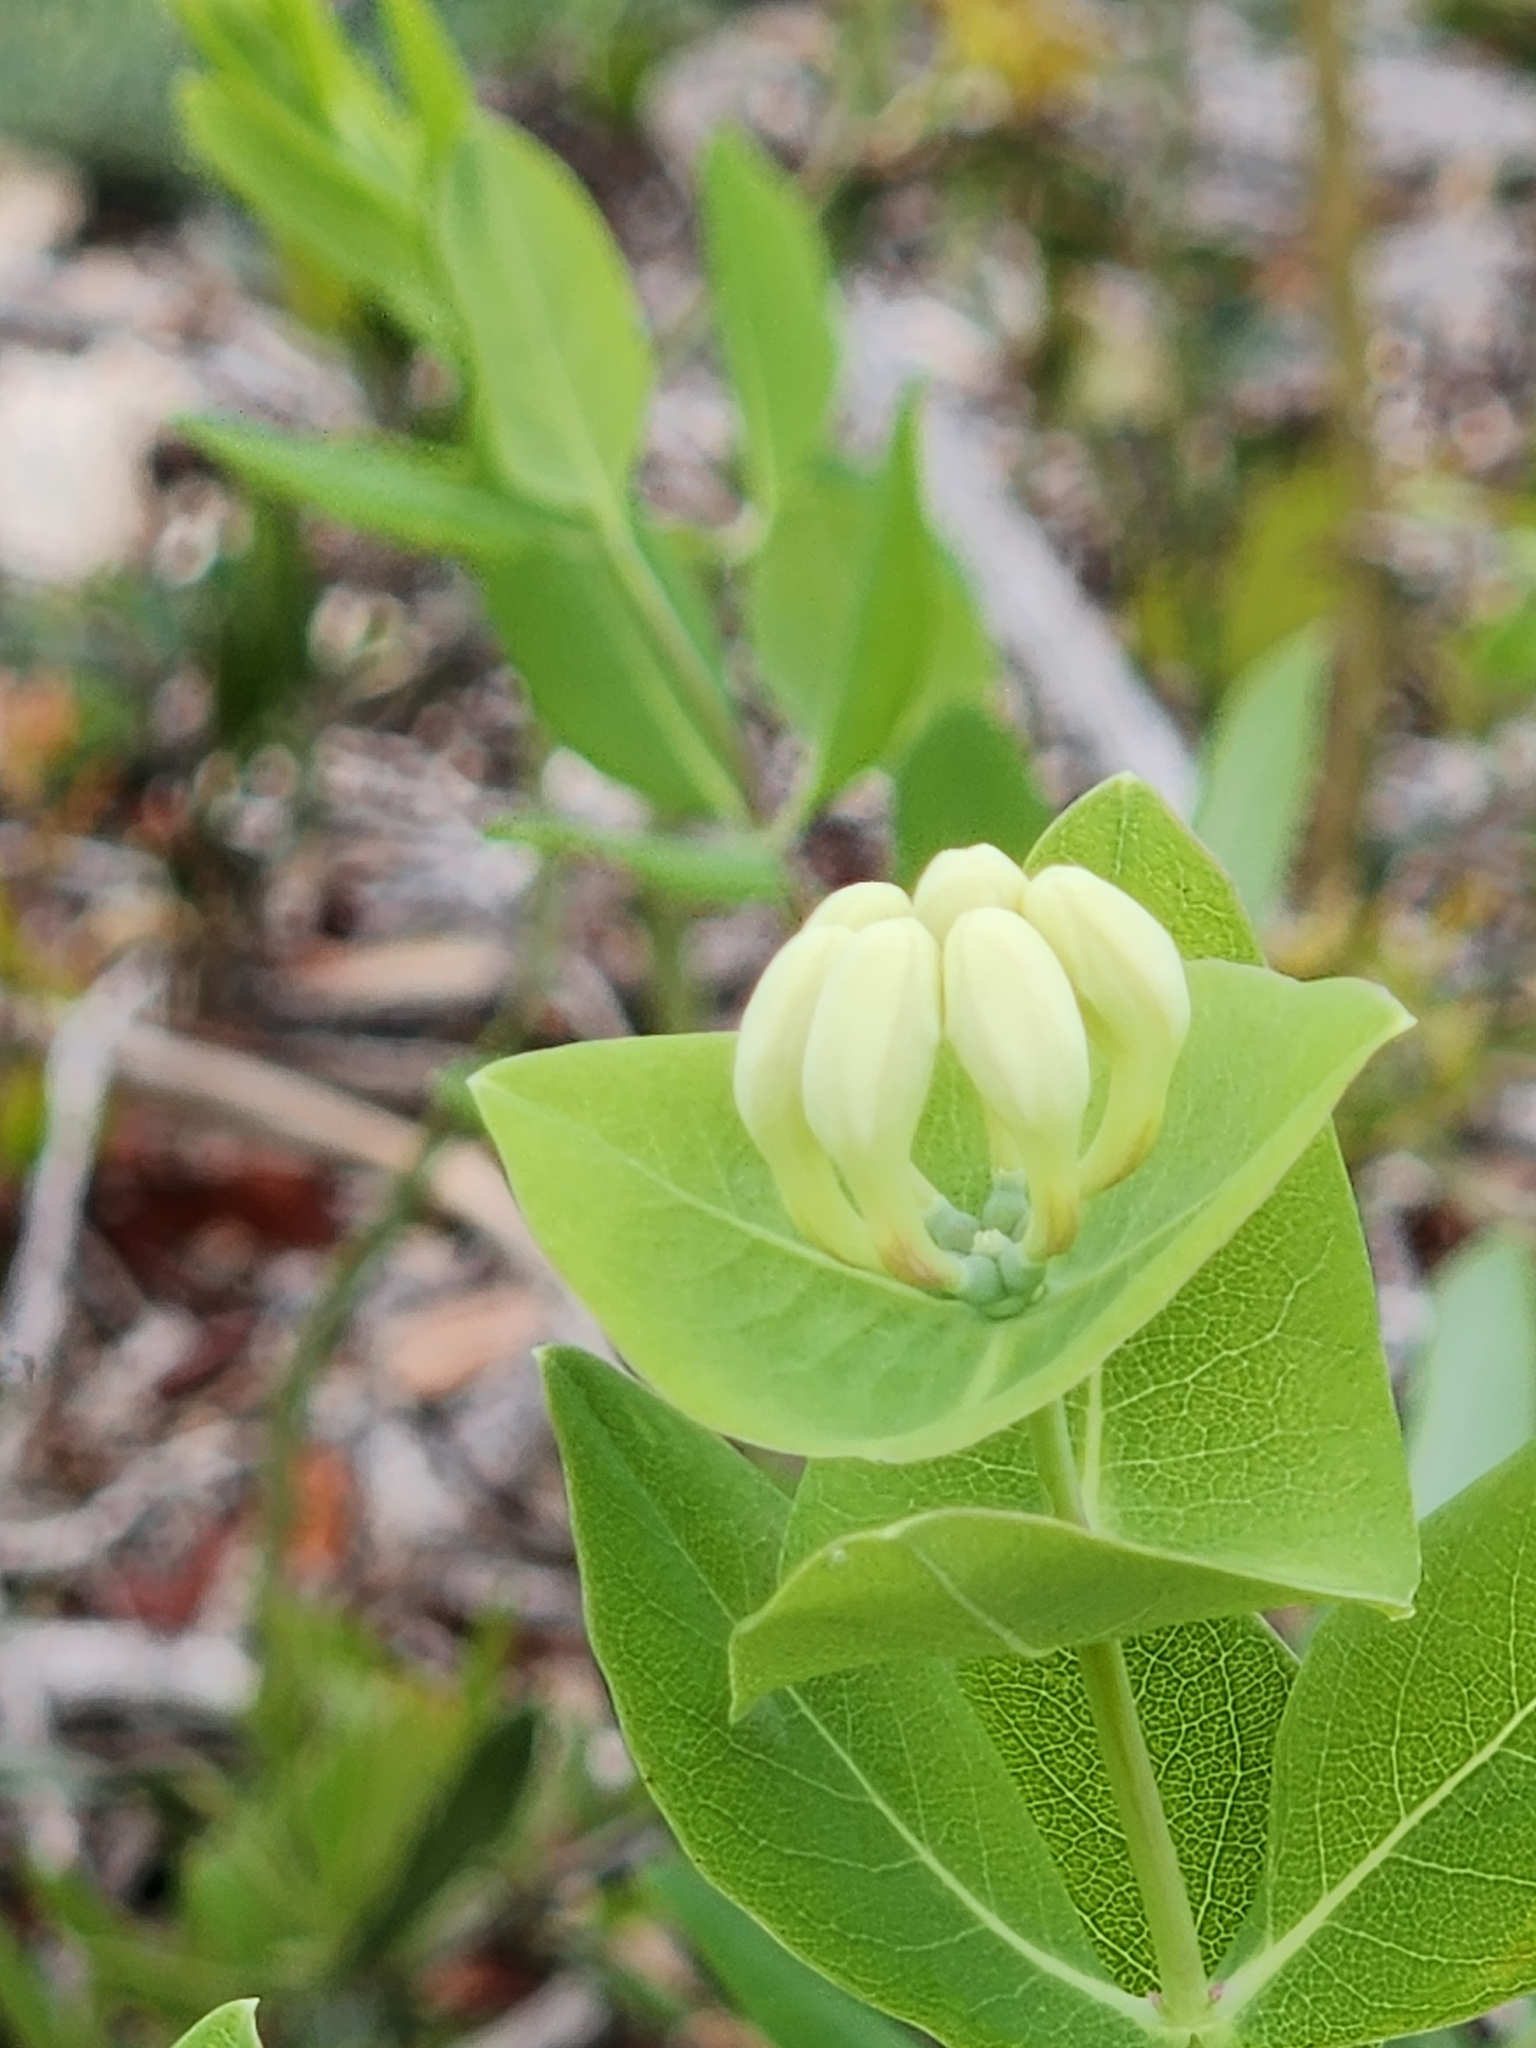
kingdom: Plantae
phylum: Tracheophyta
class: Magnoliopsida
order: Dipsacales
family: Caprifoliaceae
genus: Lonicera
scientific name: Lonicera albiflora
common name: White honeysuckle
